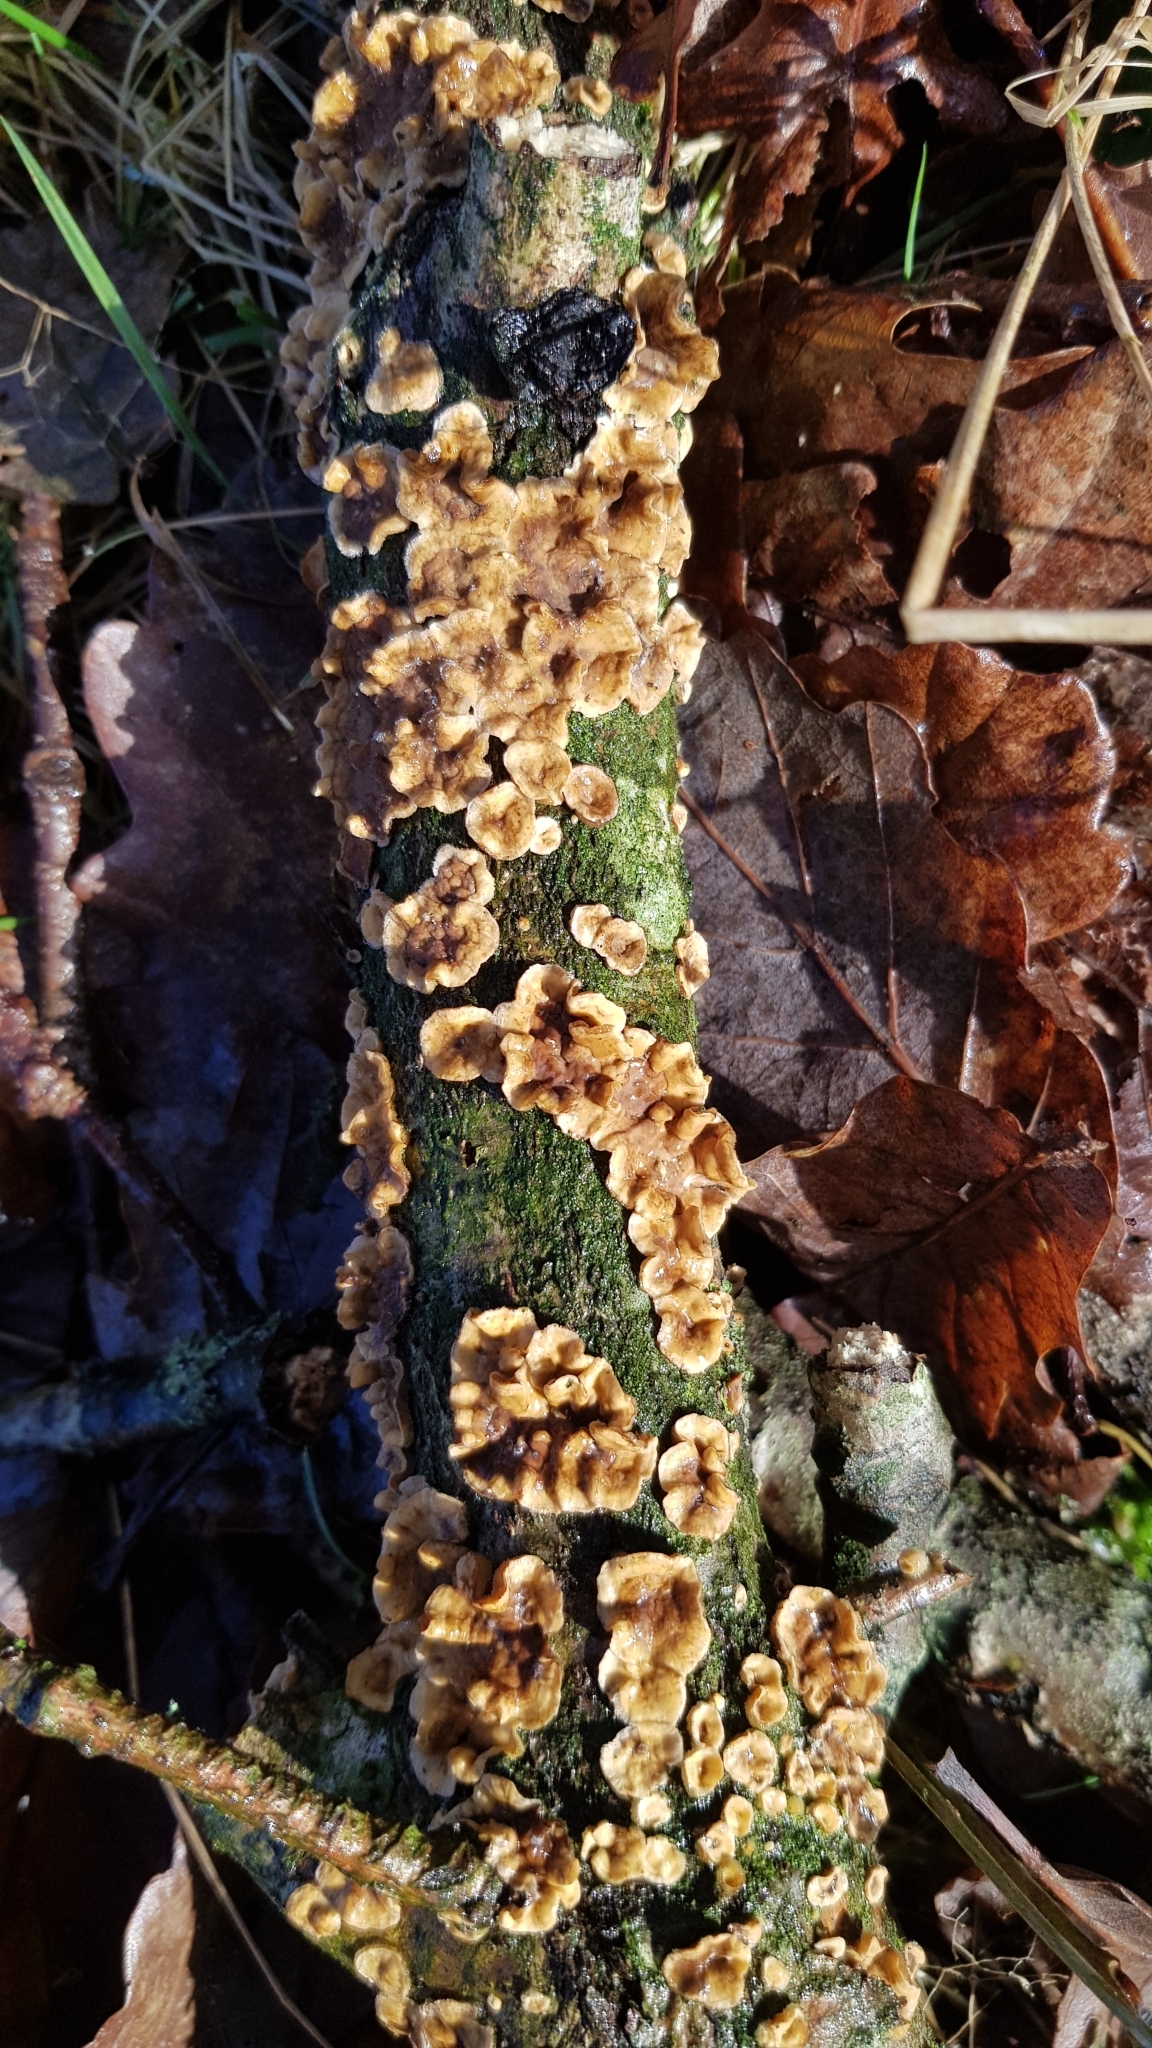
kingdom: Fungi
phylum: Basidiomycota
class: Agaricomycetes
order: Russulales
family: Stereaceae
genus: Stereum
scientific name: Stereum hirsutum
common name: Hairy curtain crust
